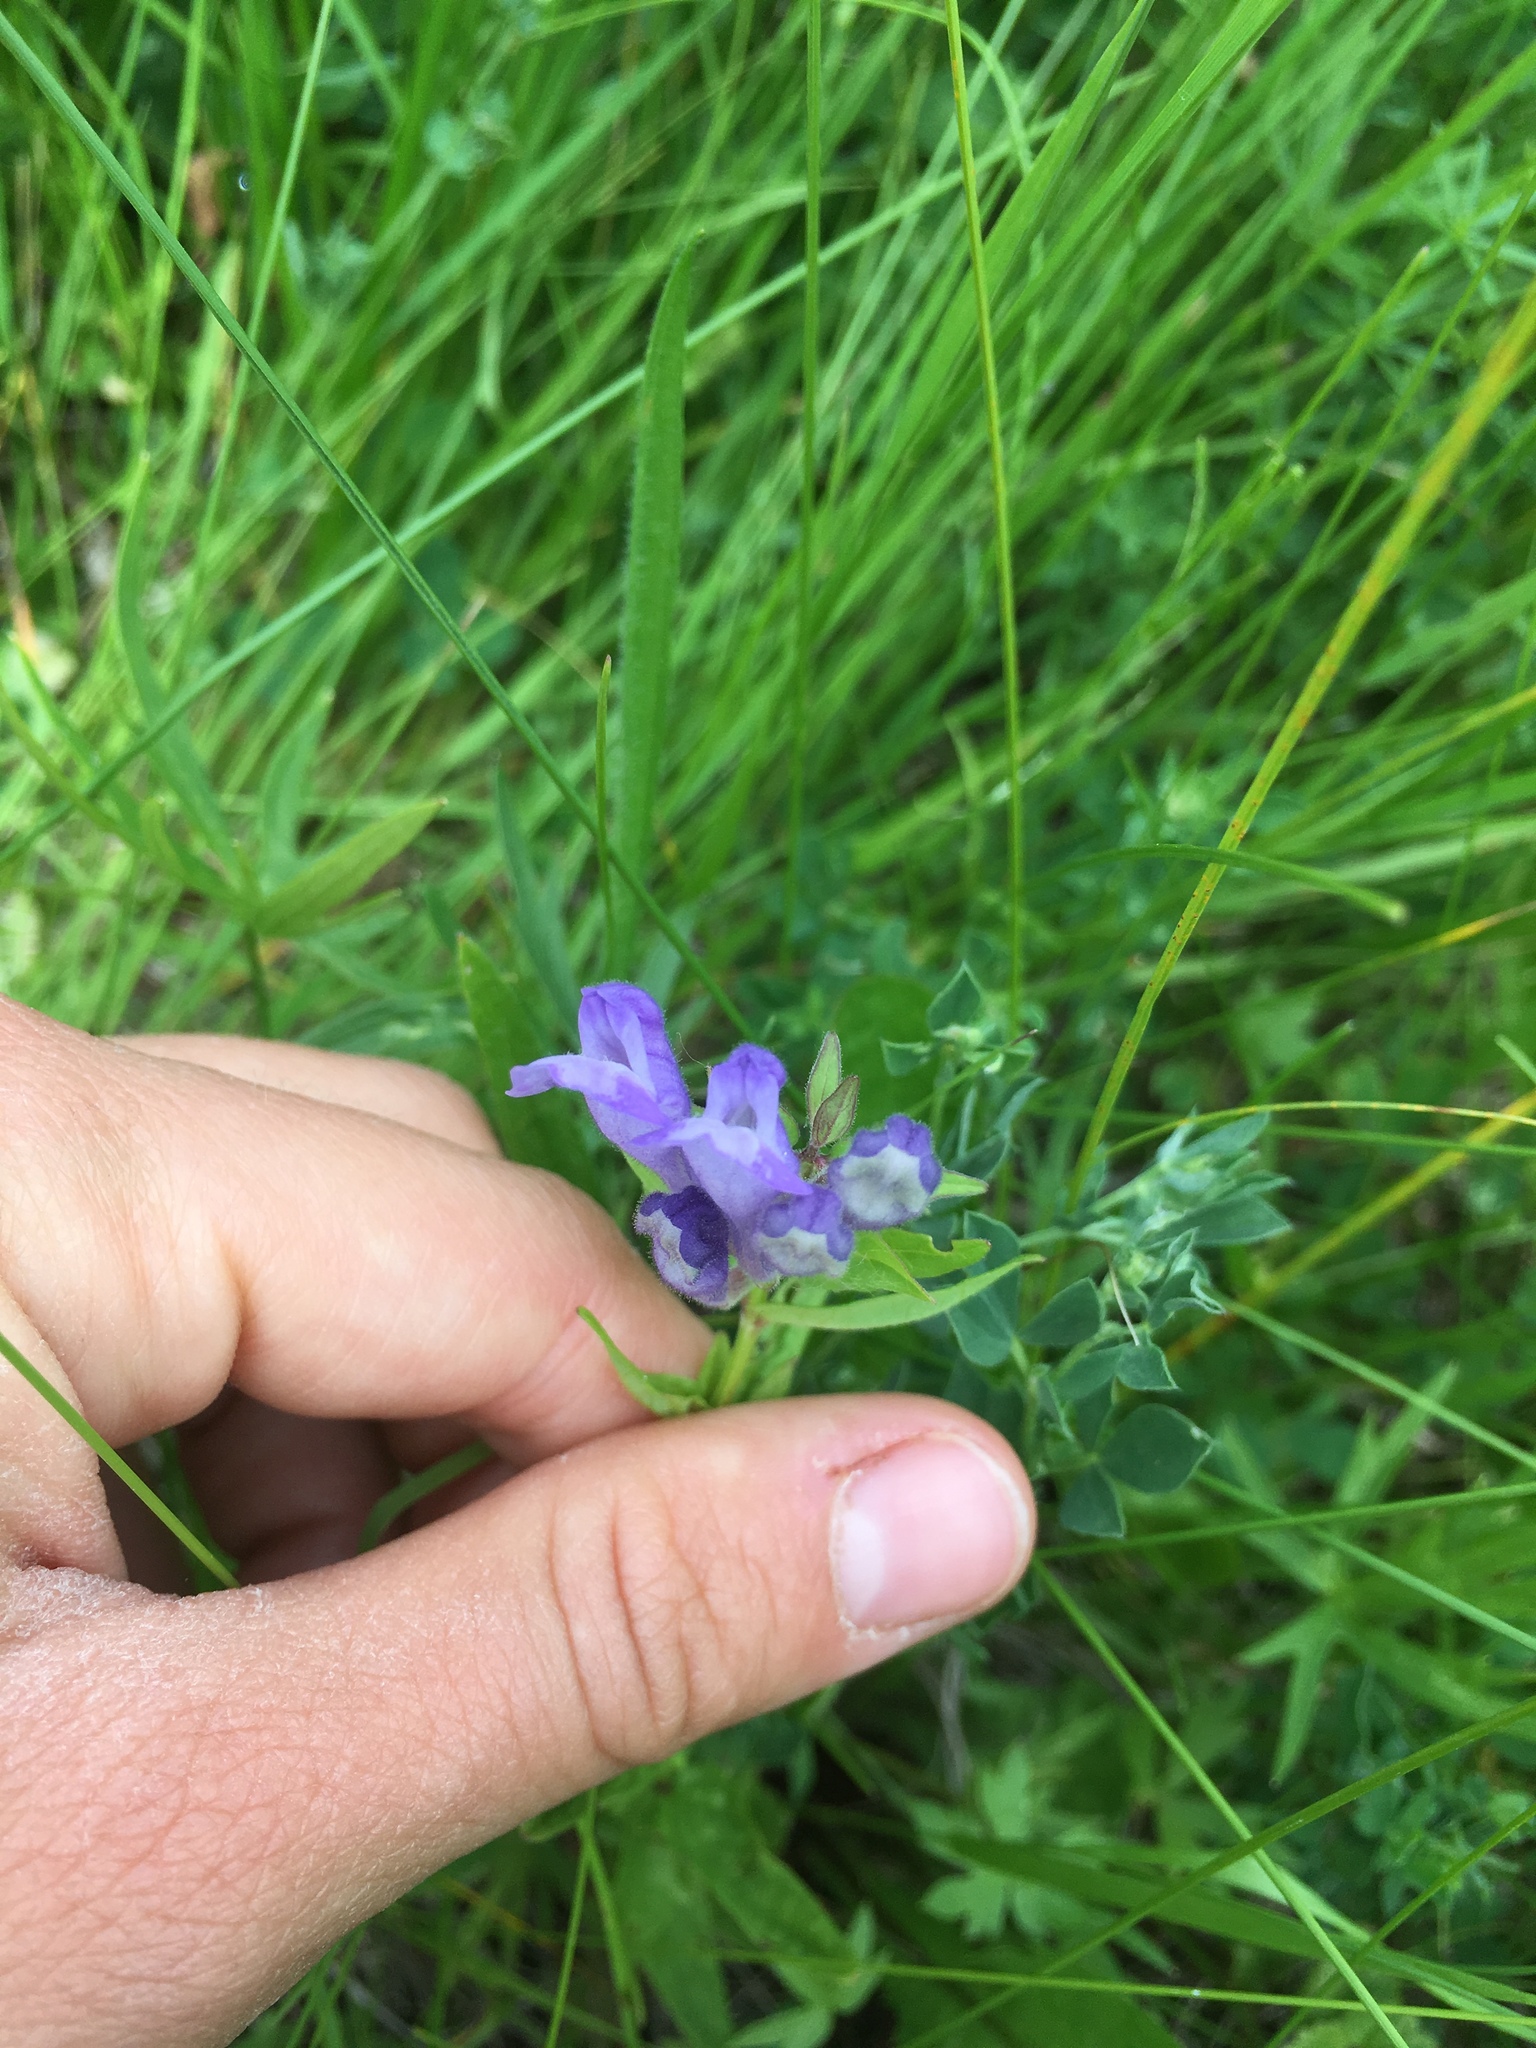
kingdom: Plantae
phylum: Tracheophyta
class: Magnoliopsida
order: Lamiales
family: Lamiaceae
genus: Scutellaria
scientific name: Scutellaria hastifolia
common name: Norfolk skullcap
